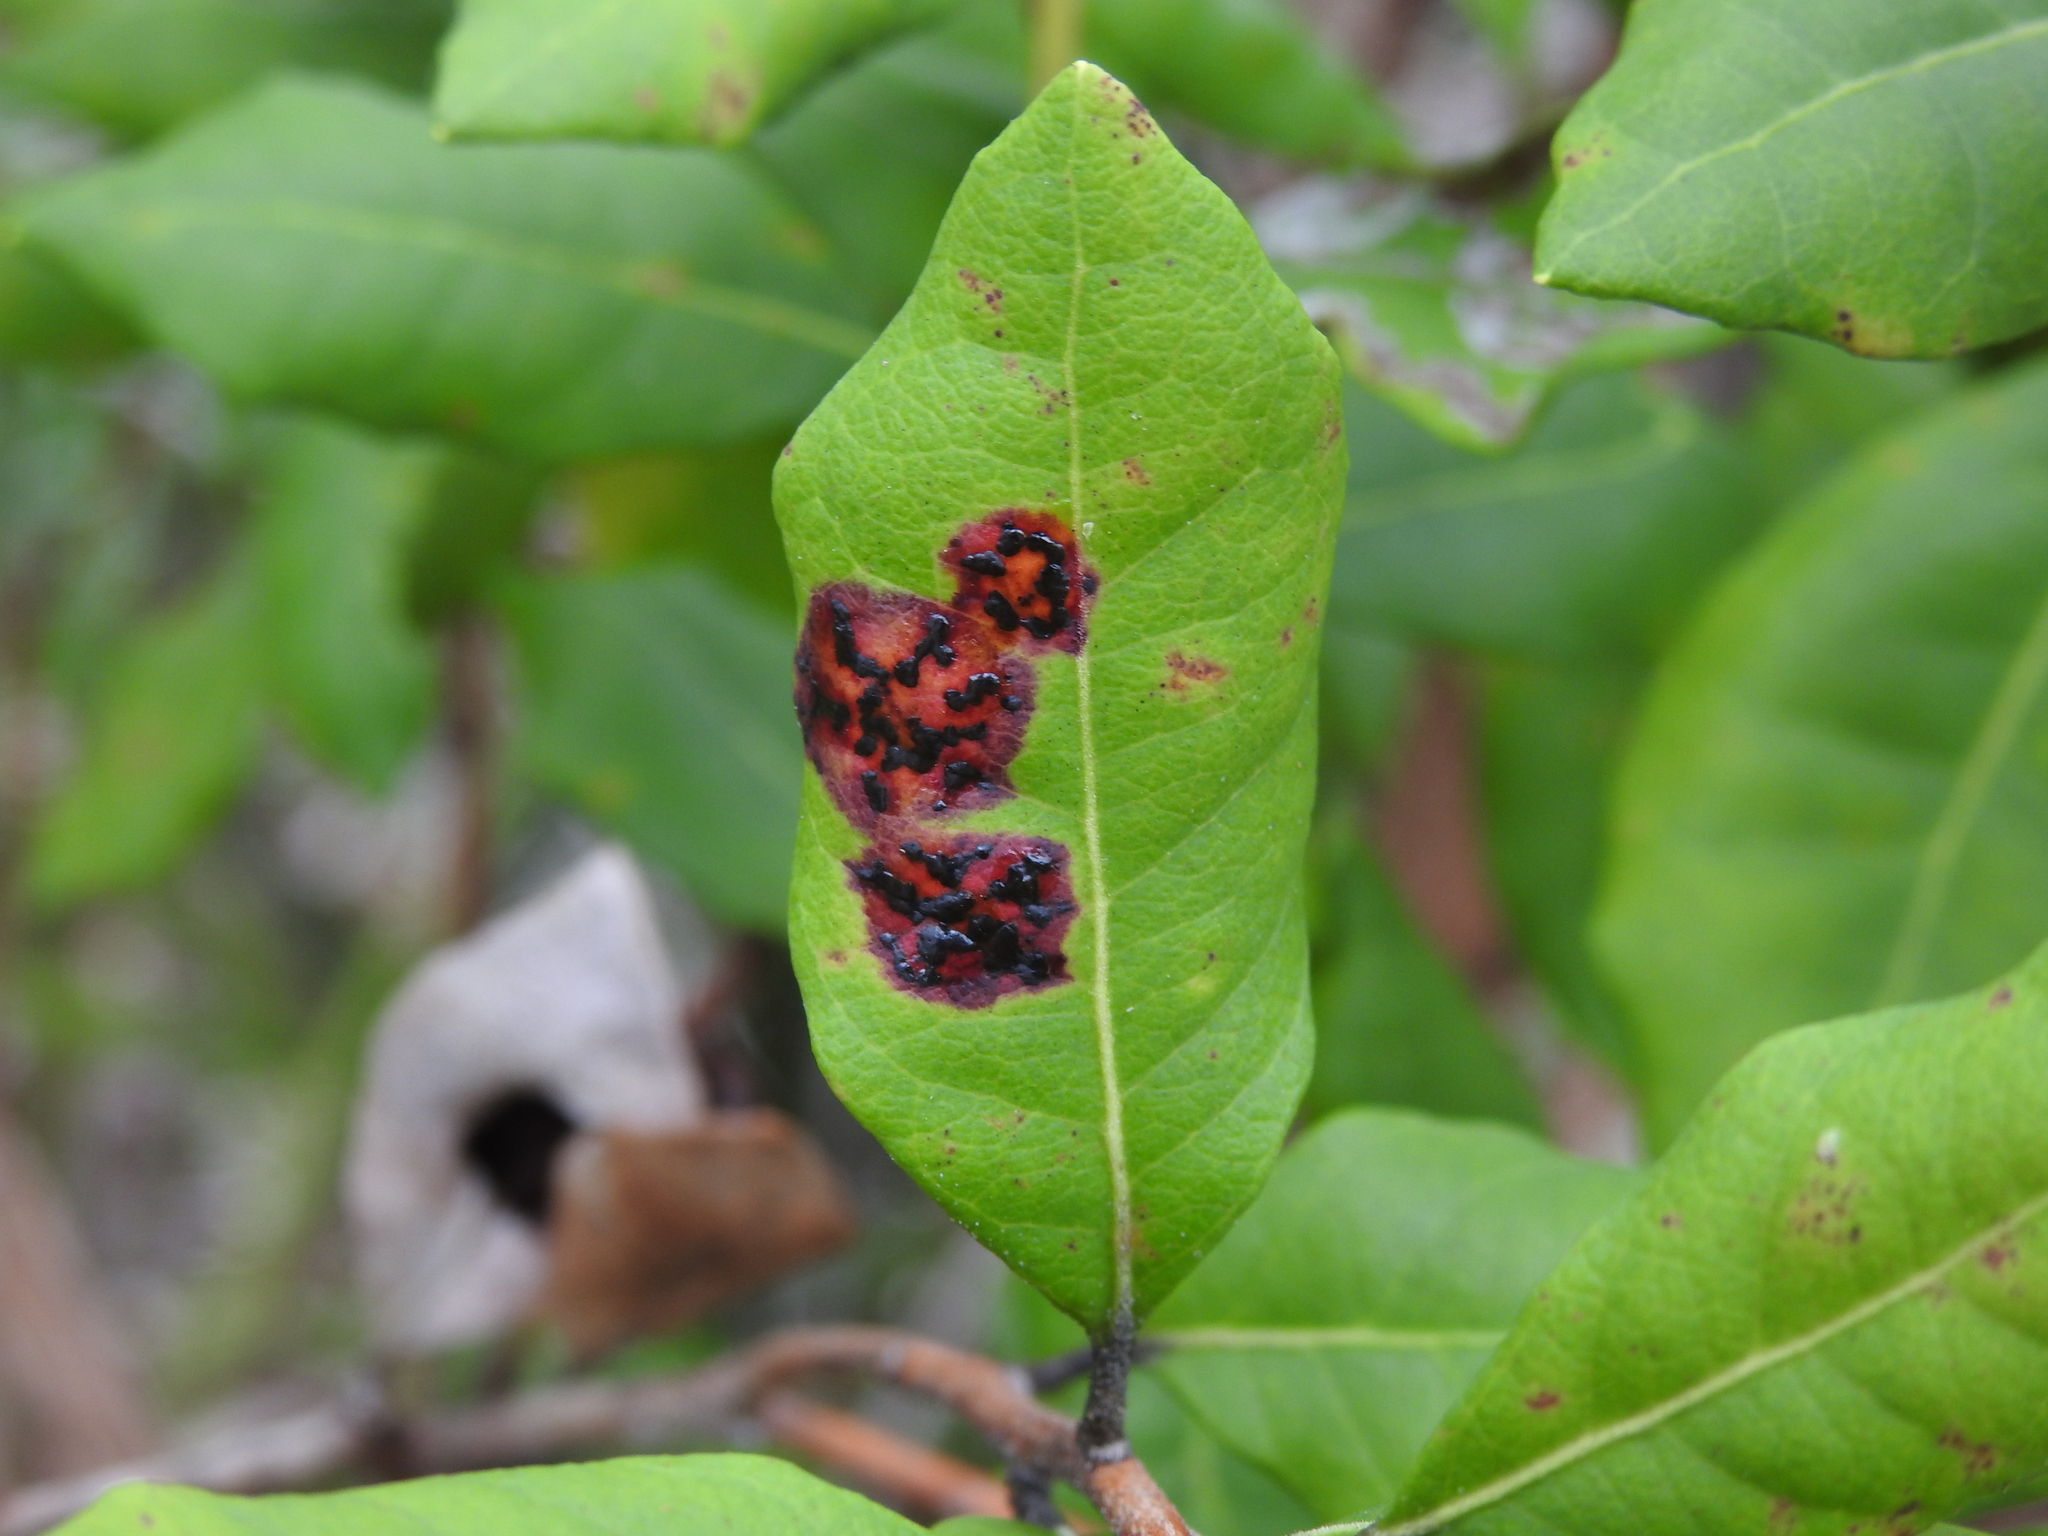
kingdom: Fungi
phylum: Ascomycota
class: Sordariomycetes
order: Phyllachorales
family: Phyllachoraceae
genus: Ophiodothella
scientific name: Ophiodothella angustissima
